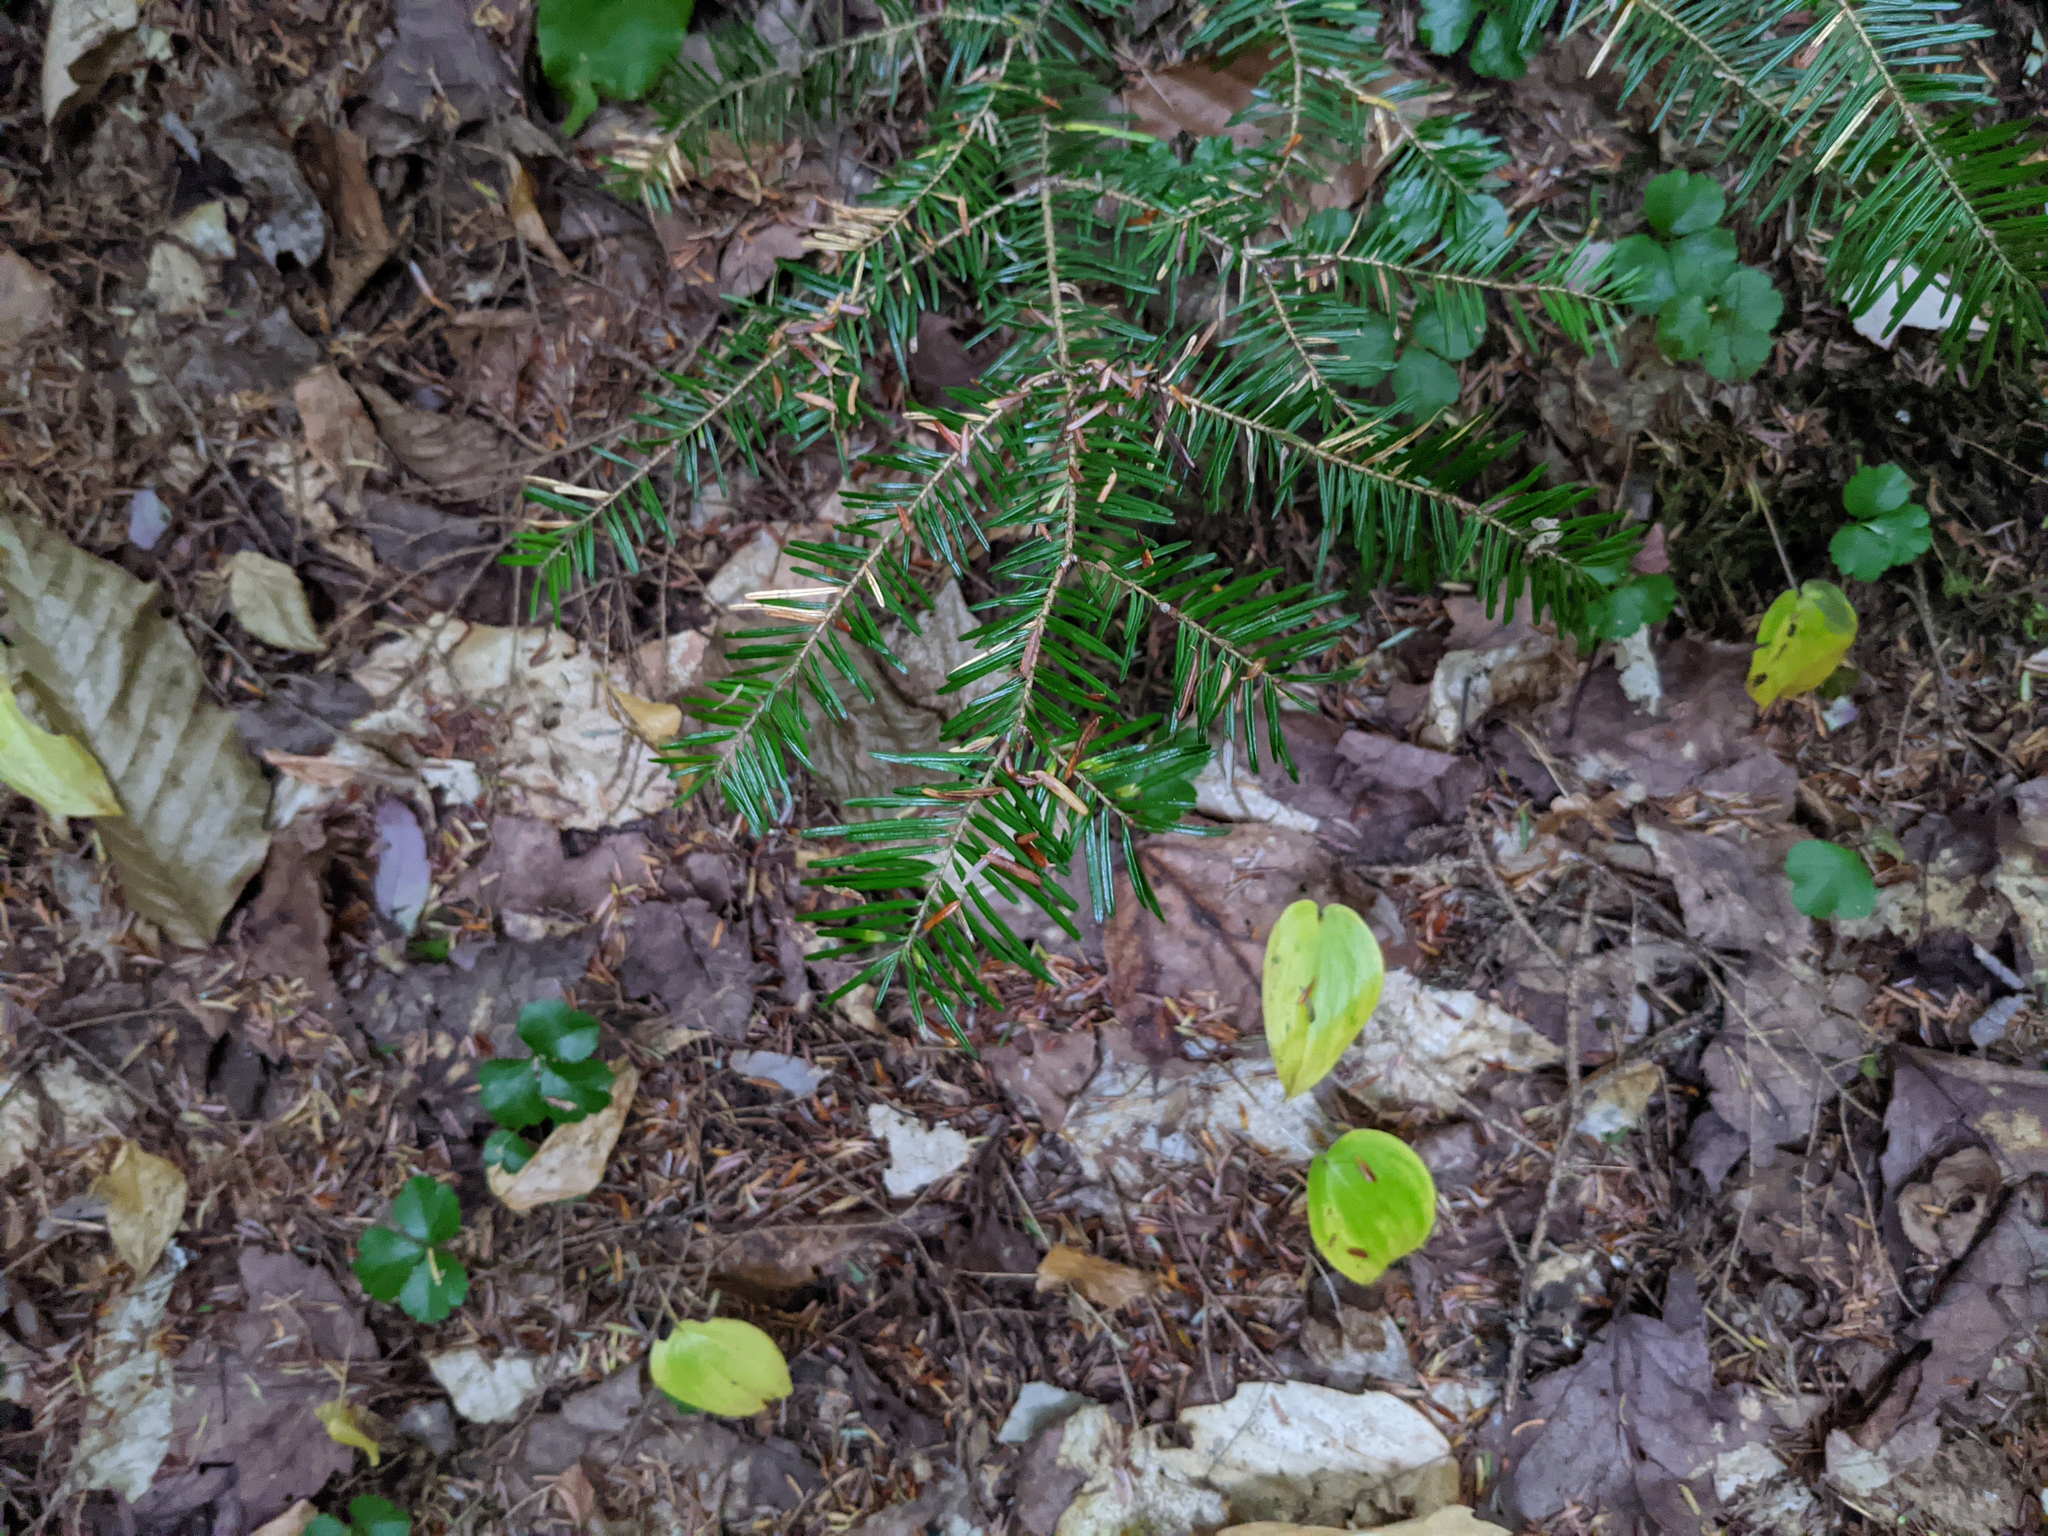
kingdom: Plantae
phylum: Tracheophyta
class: Pinopsida
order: Pinales
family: Pinaceae
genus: Abies
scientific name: Abies balsamea
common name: Balsam fir
